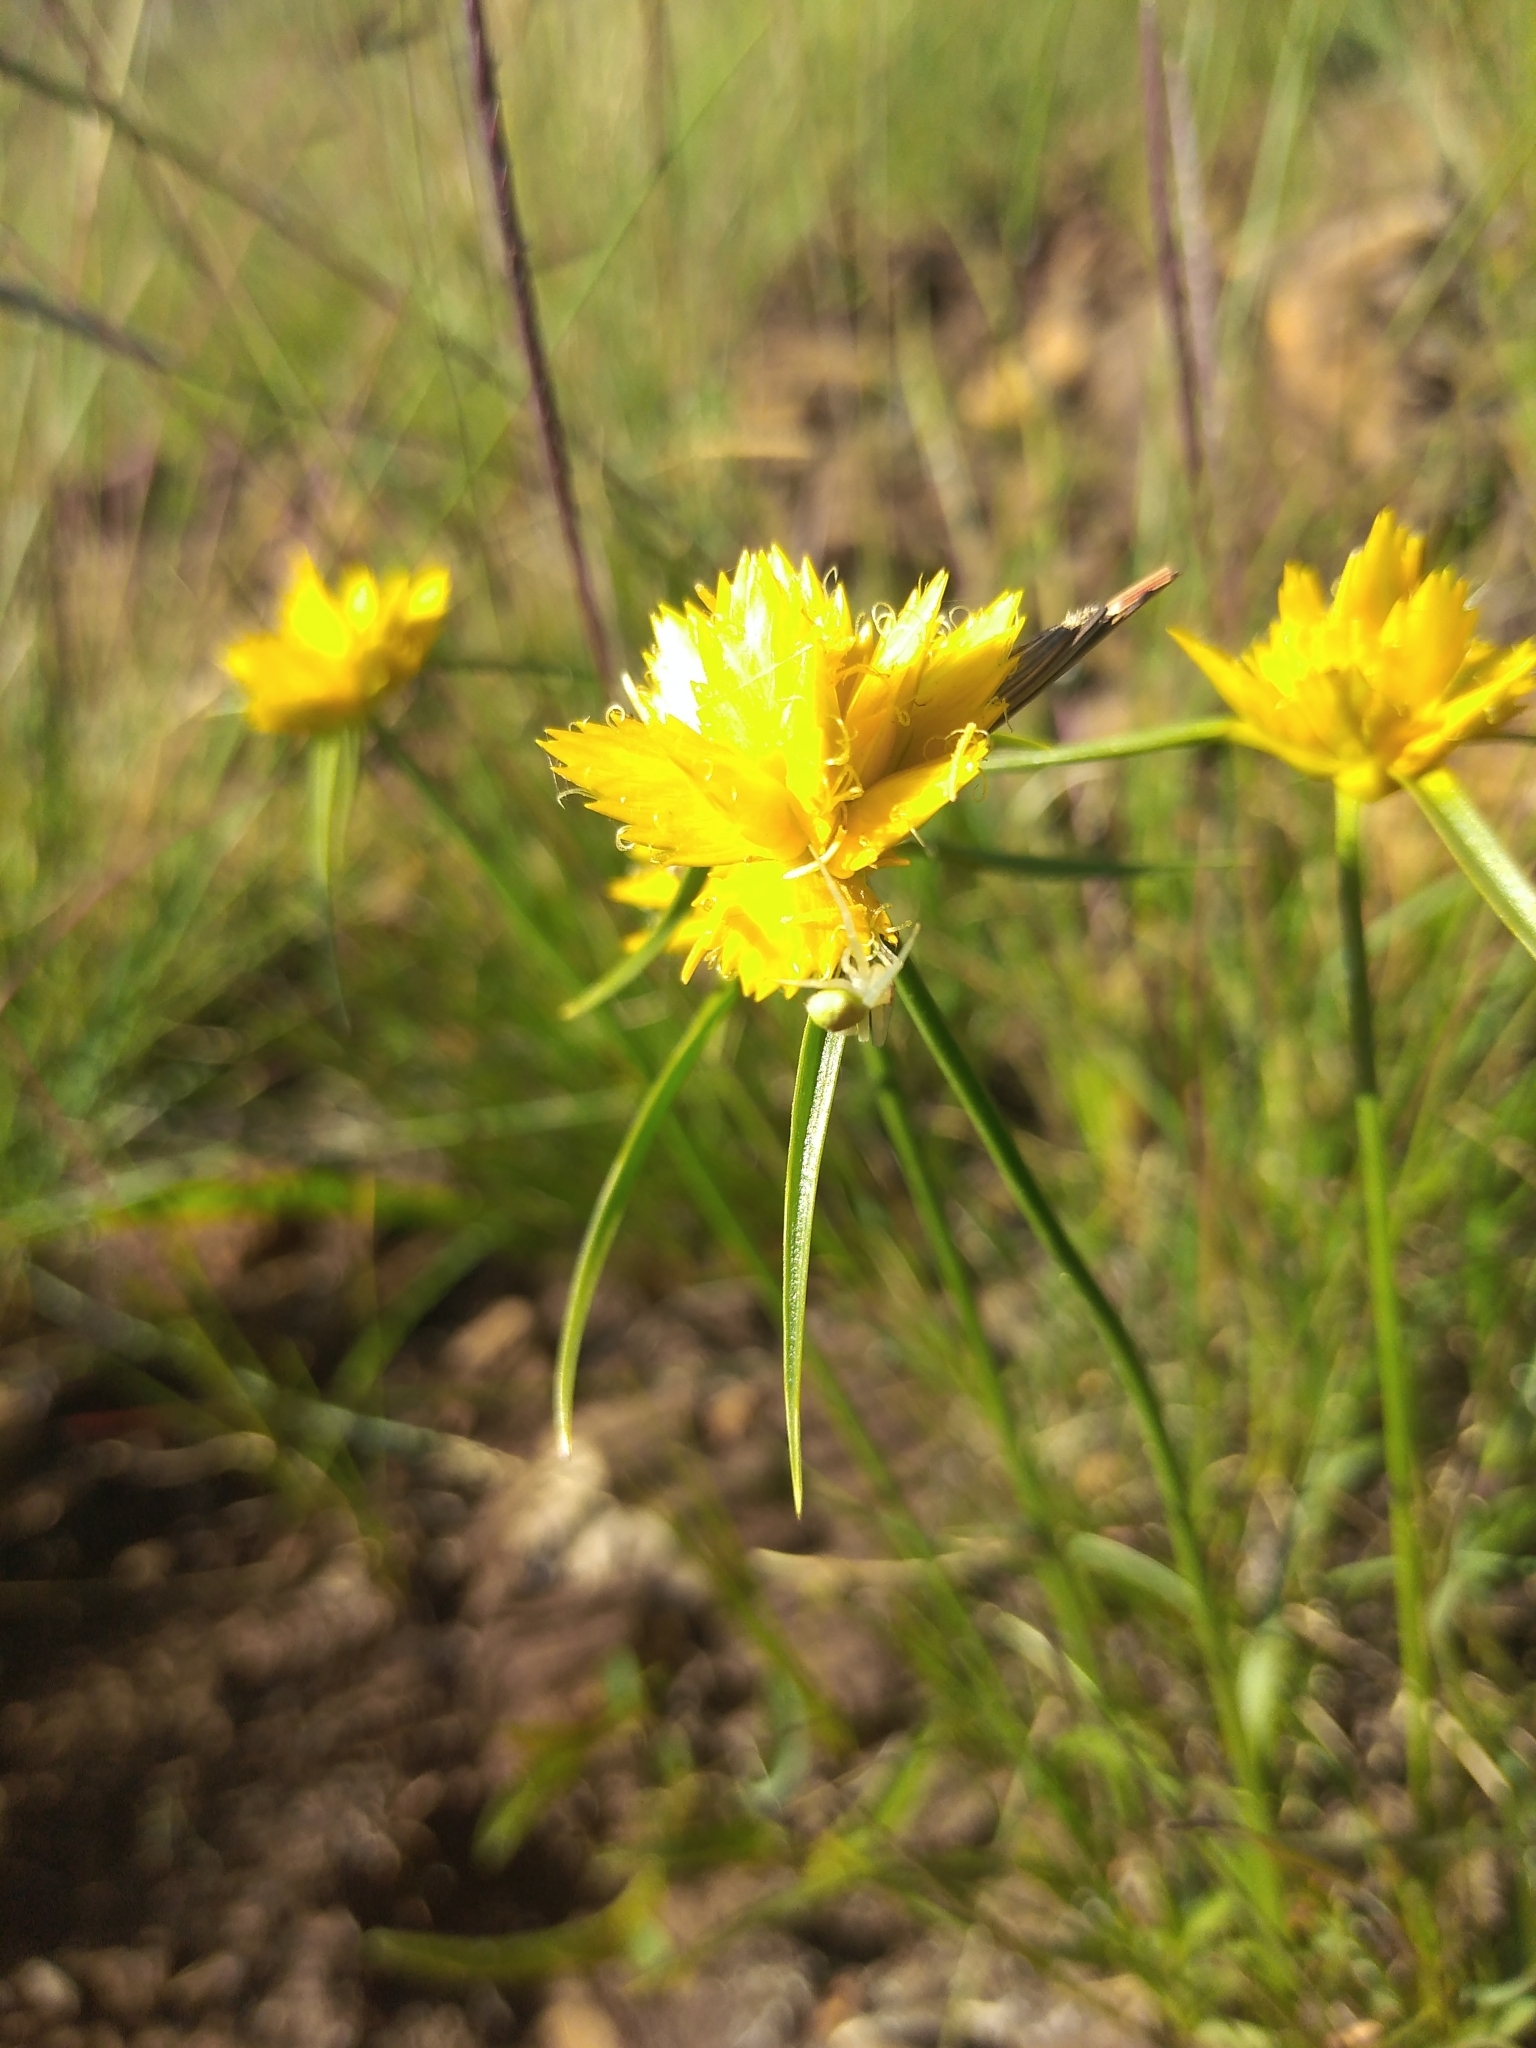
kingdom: Plantae
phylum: Tracheophyta
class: Liliopsida
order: Poales
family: Cyperaceae
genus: Cyperus
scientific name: Cyperus sphaerocephalus
